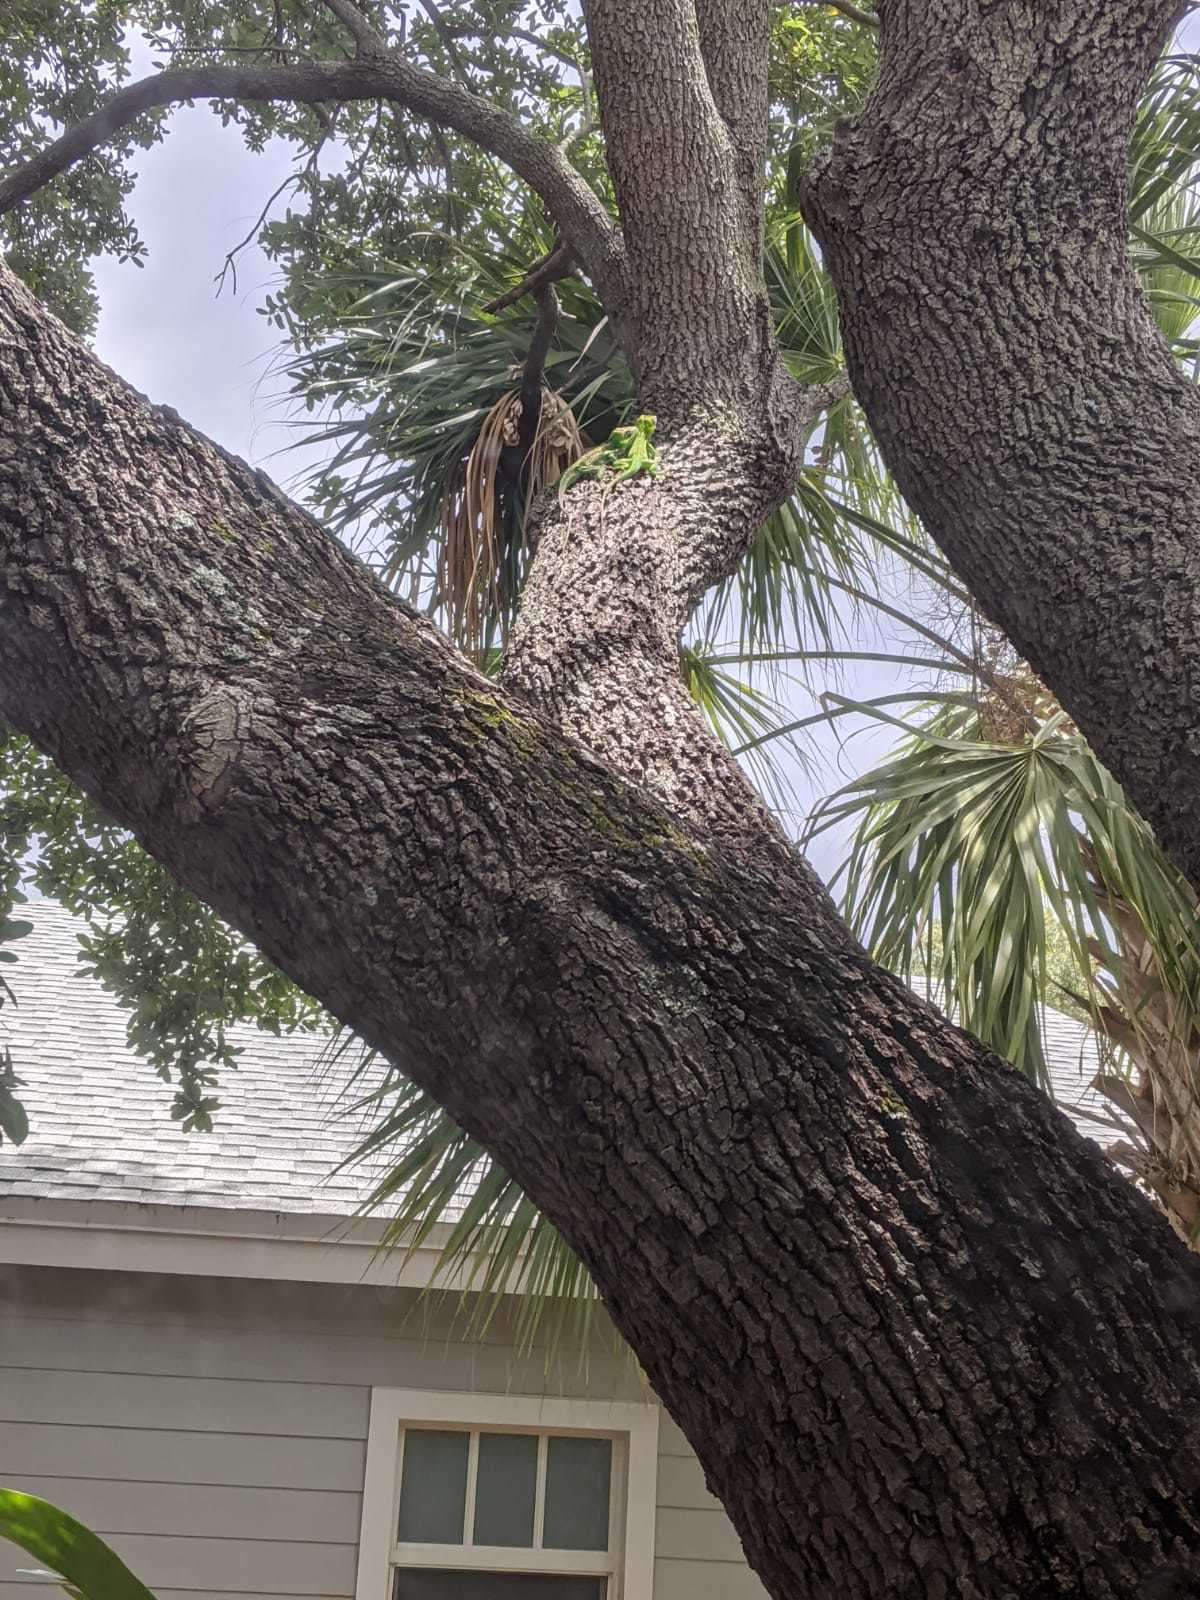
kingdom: Animalia
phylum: Chordata
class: Squamata
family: Dactyloidae
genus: Anolis
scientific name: Anolis equestris
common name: Knight anole
